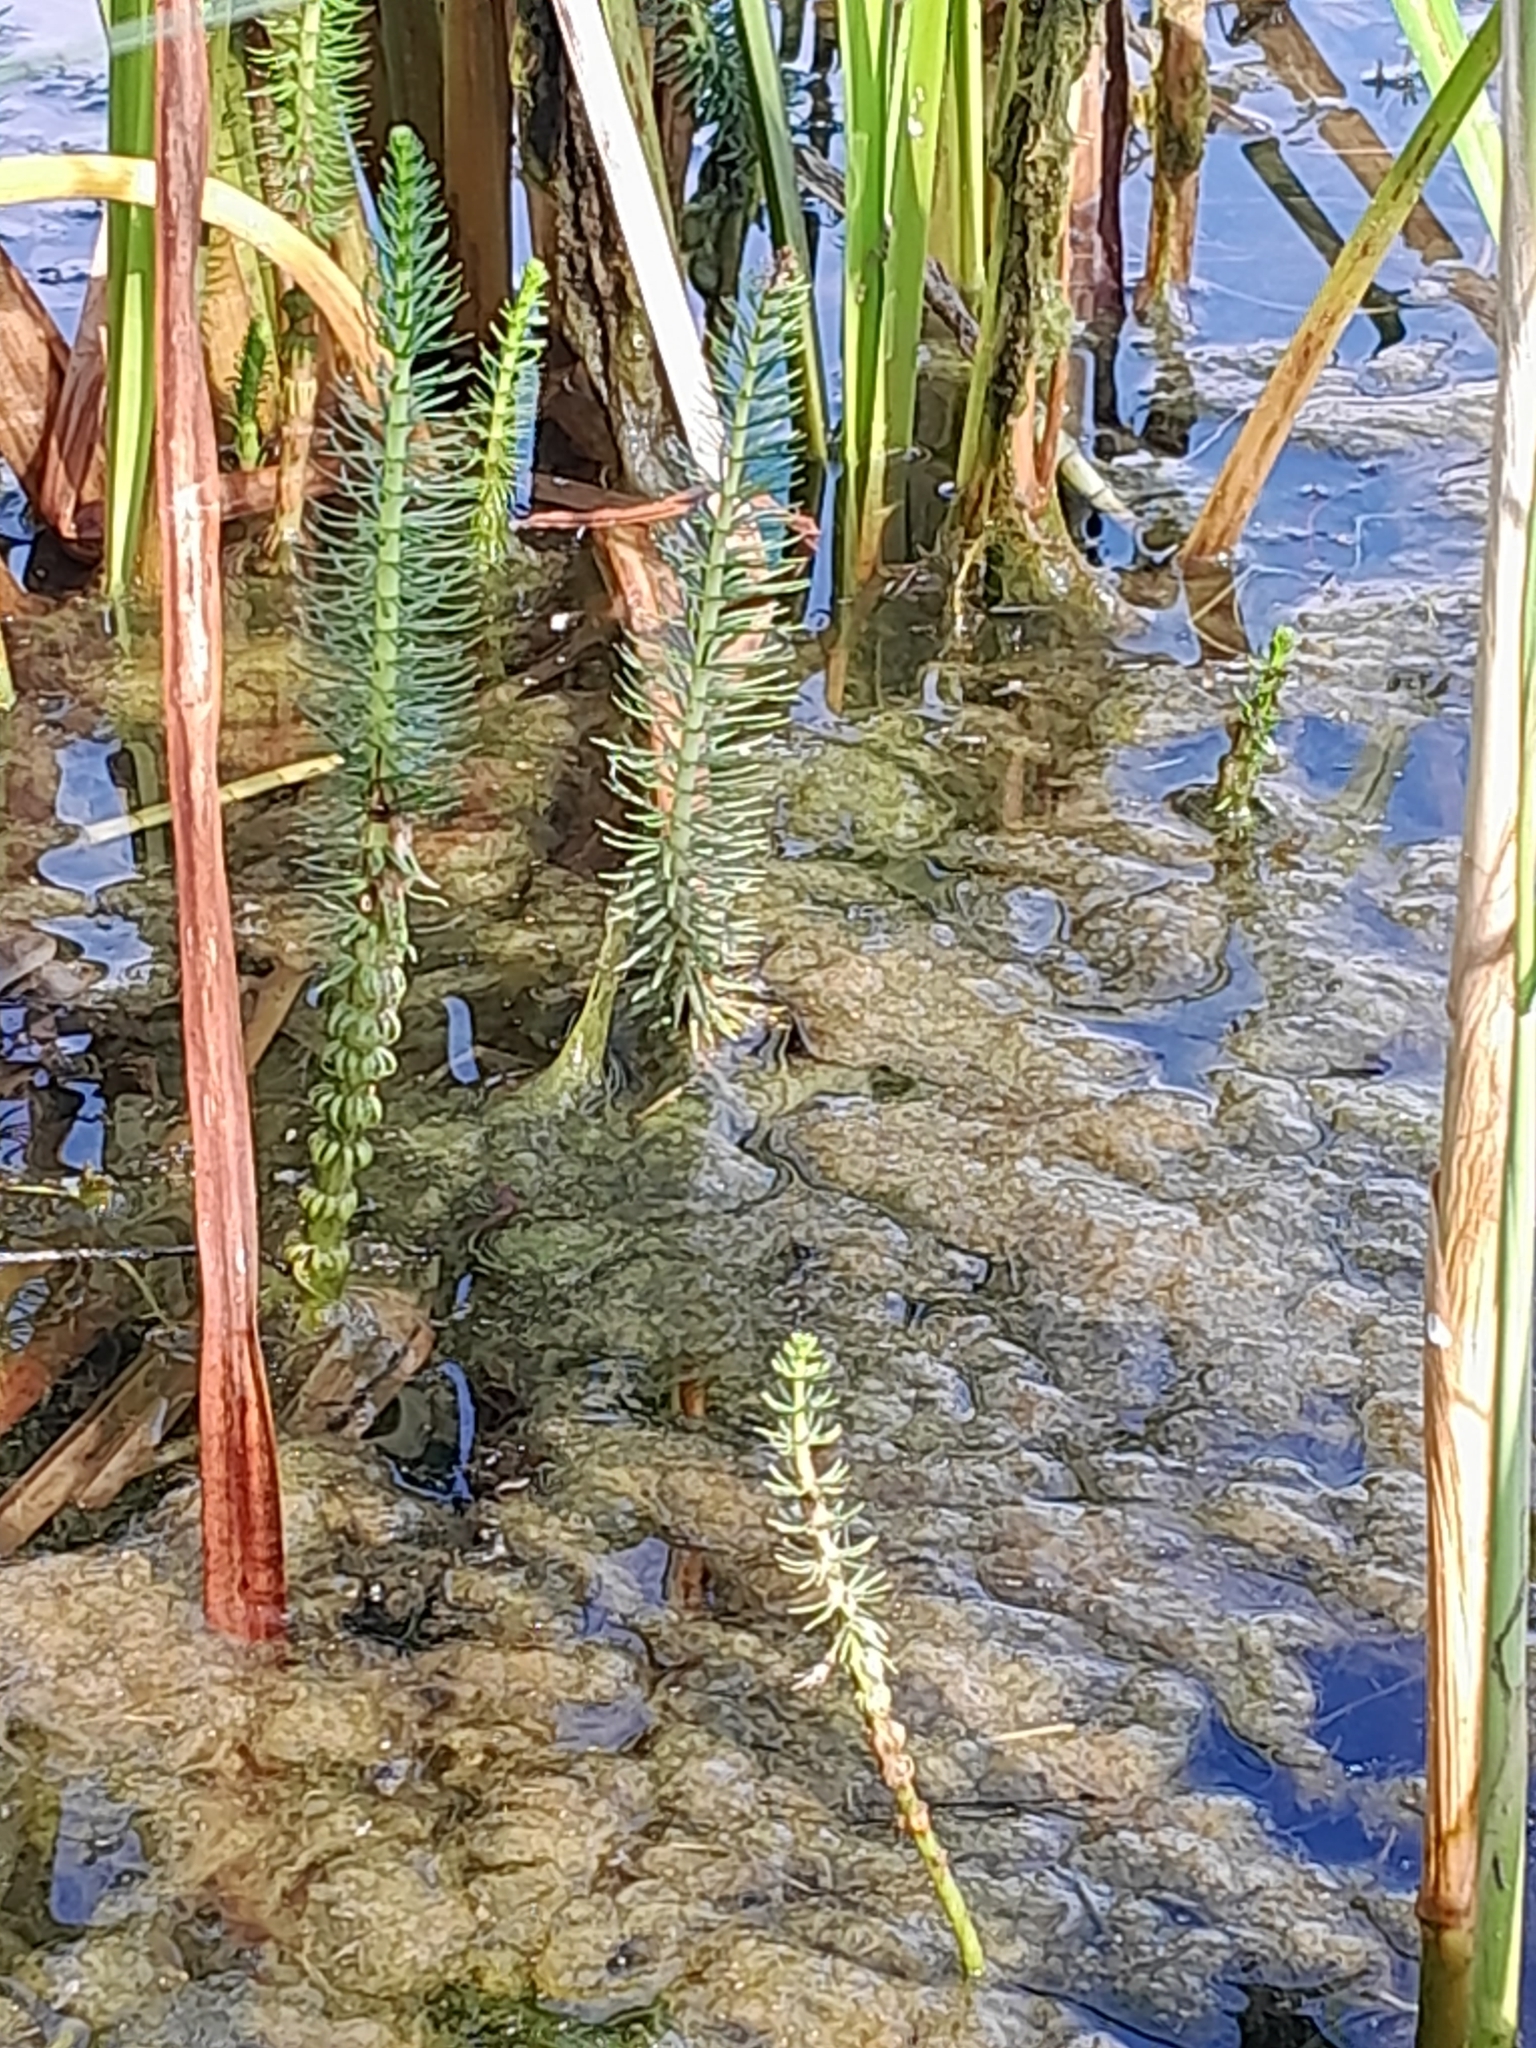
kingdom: Plantae
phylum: Tracheophyta
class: Magnoliopsida
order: Lamiales
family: Plantaginaceae
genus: Hippuris
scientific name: Hippuris vulgaris
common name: Mare's-tail
